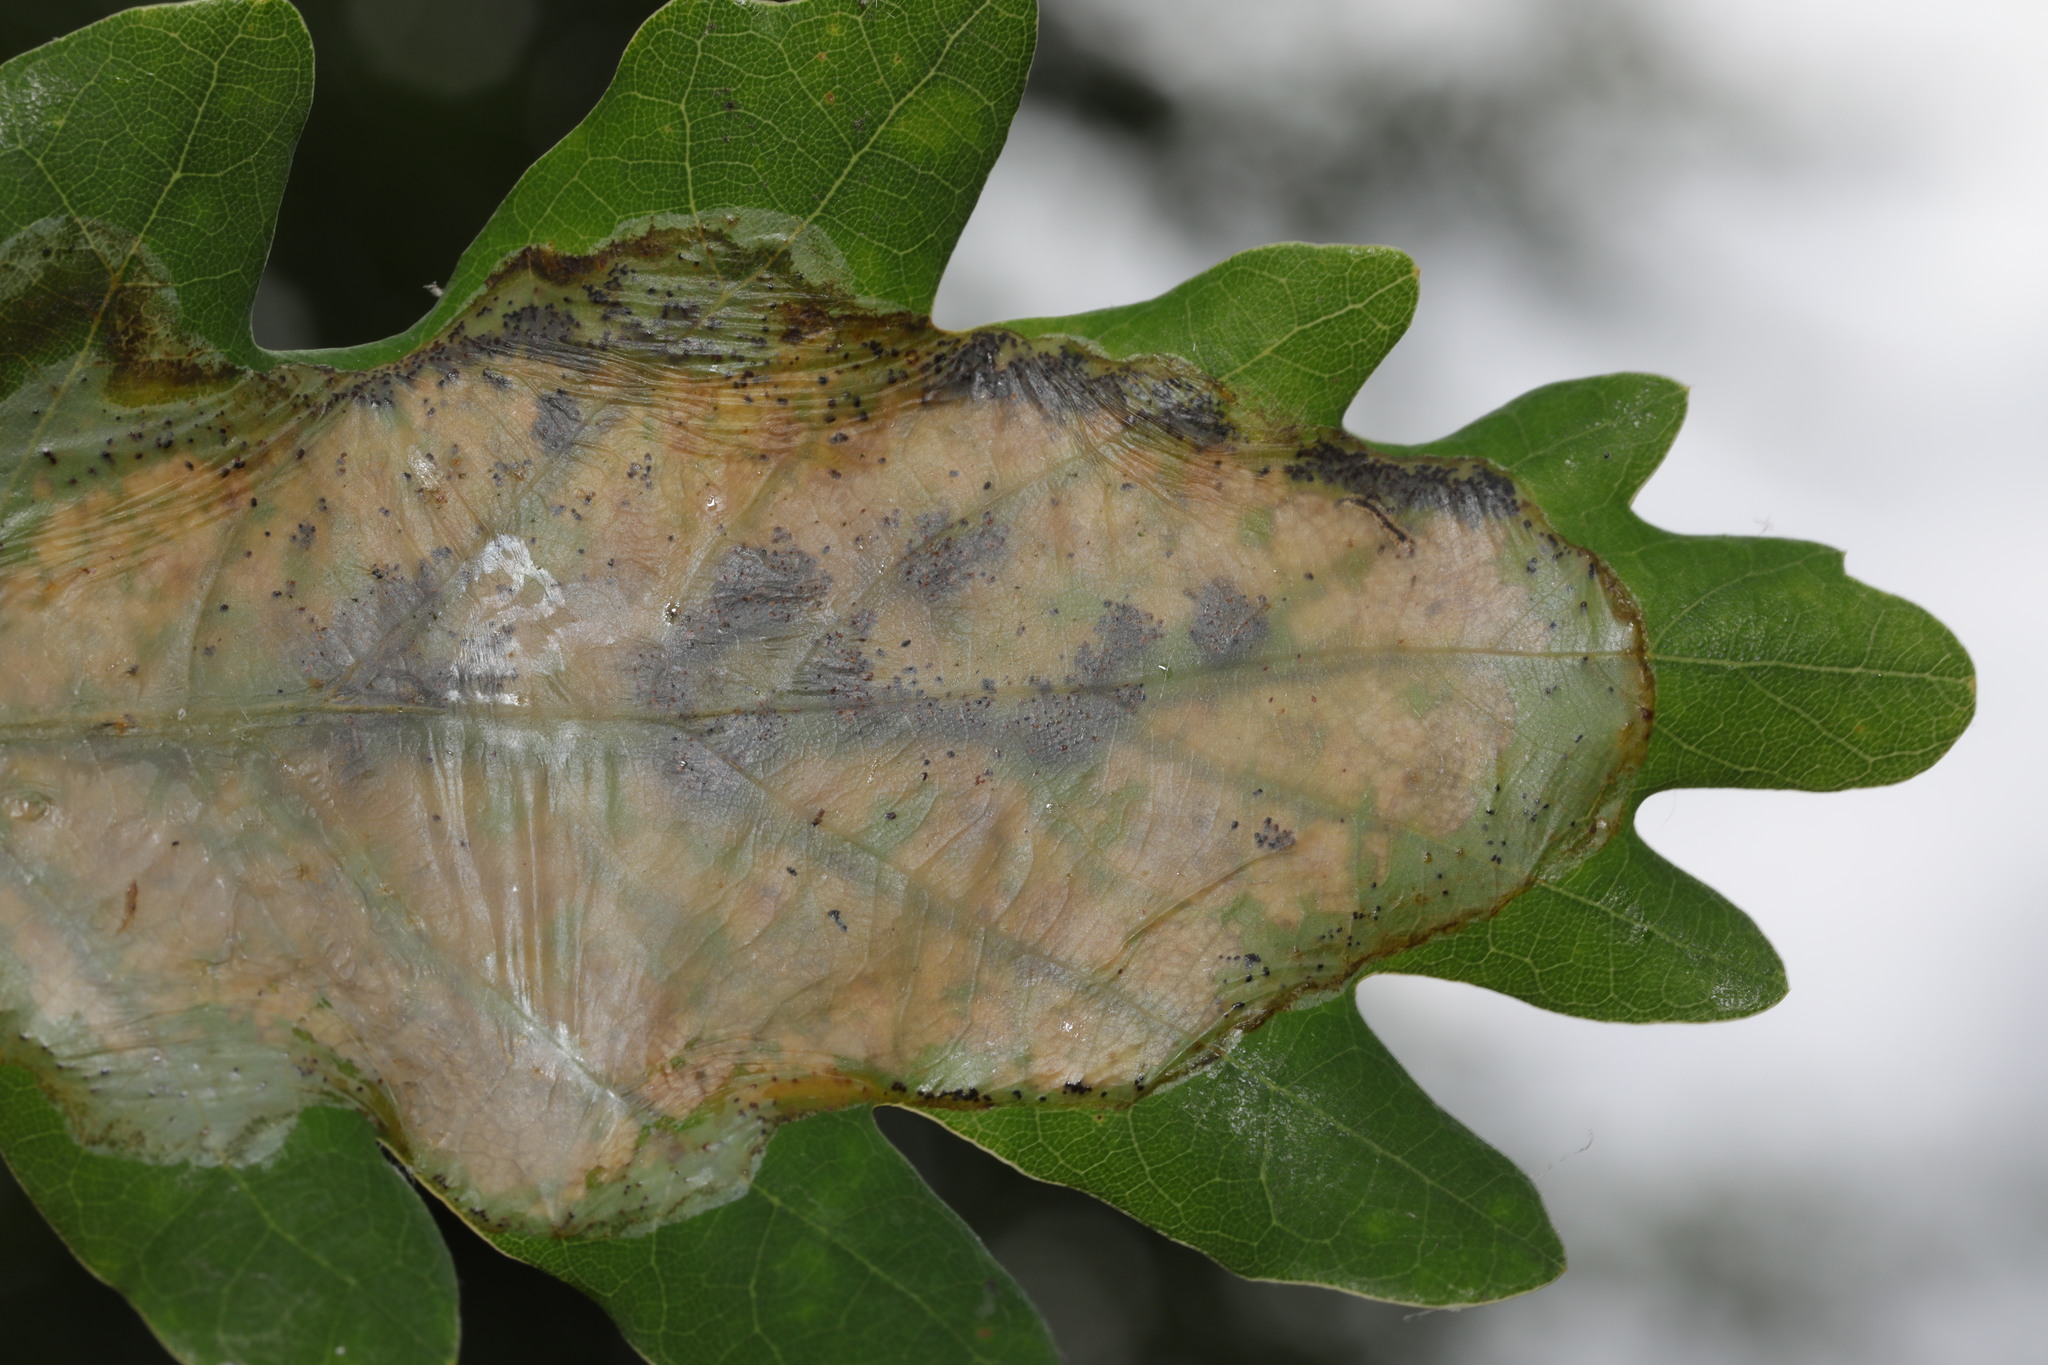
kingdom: Animalia
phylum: Arthropoda
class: Insecta
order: Lepidoptera
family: Gracillariidae
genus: Acrocercops
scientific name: Acrocercops brongniardella
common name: Brown oak slender
